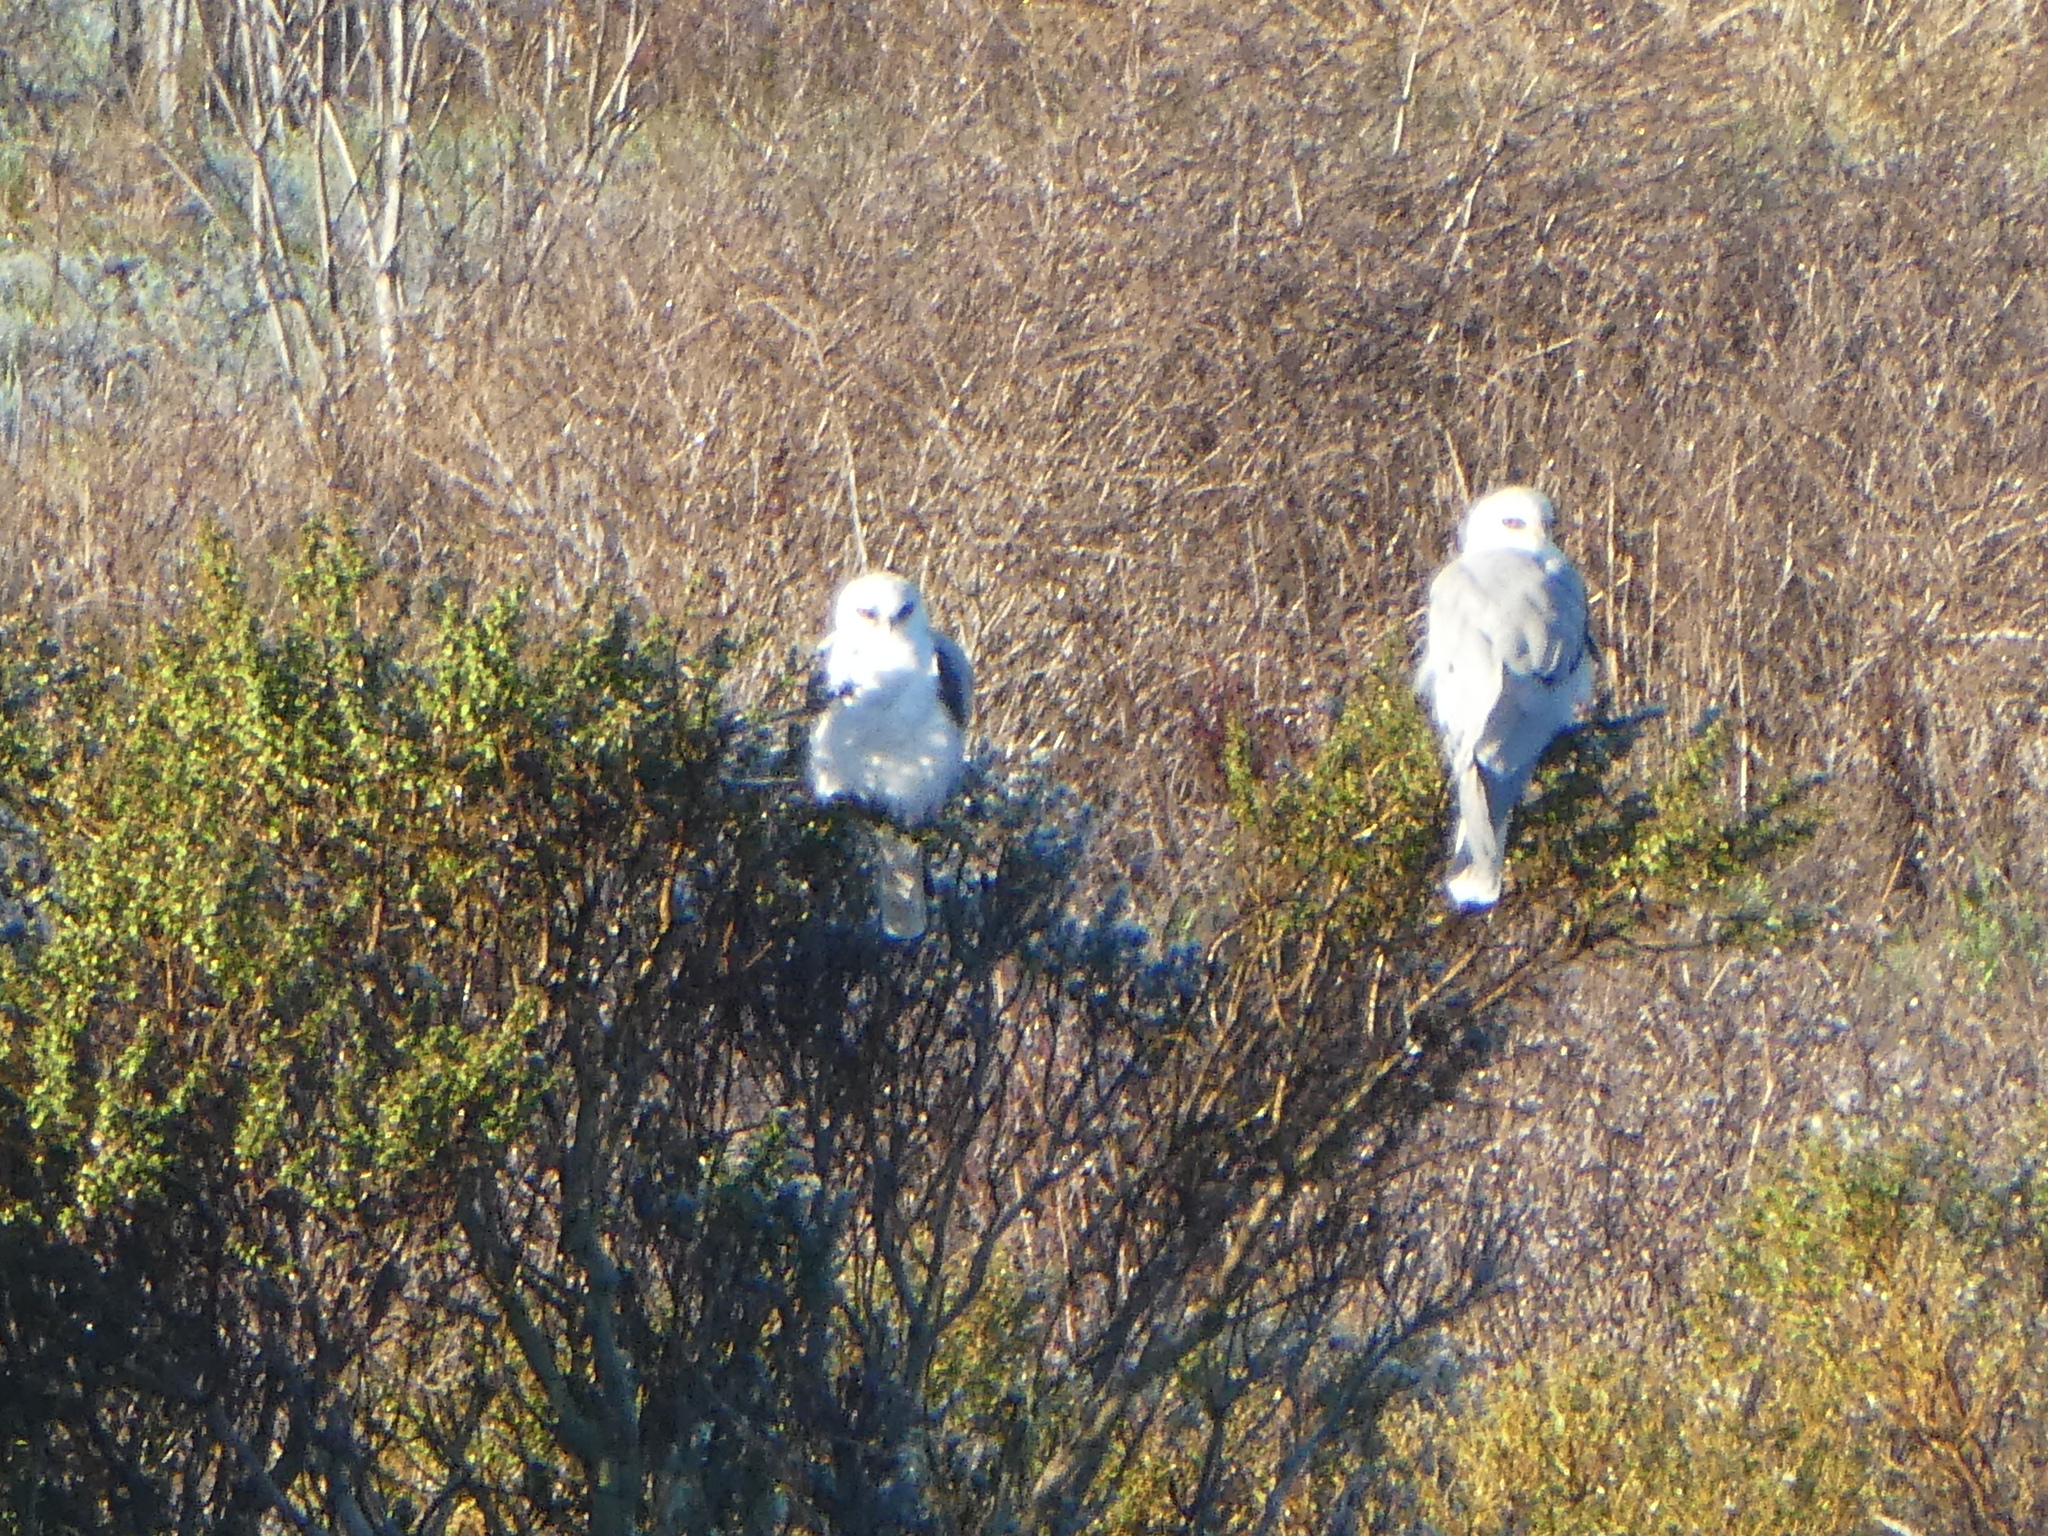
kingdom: Animalia
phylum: Chordata
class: Aves
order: Accipitriformes
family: Accipitridae
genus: Elanus
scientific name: Elanus leucurus
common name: White-tailed kite
